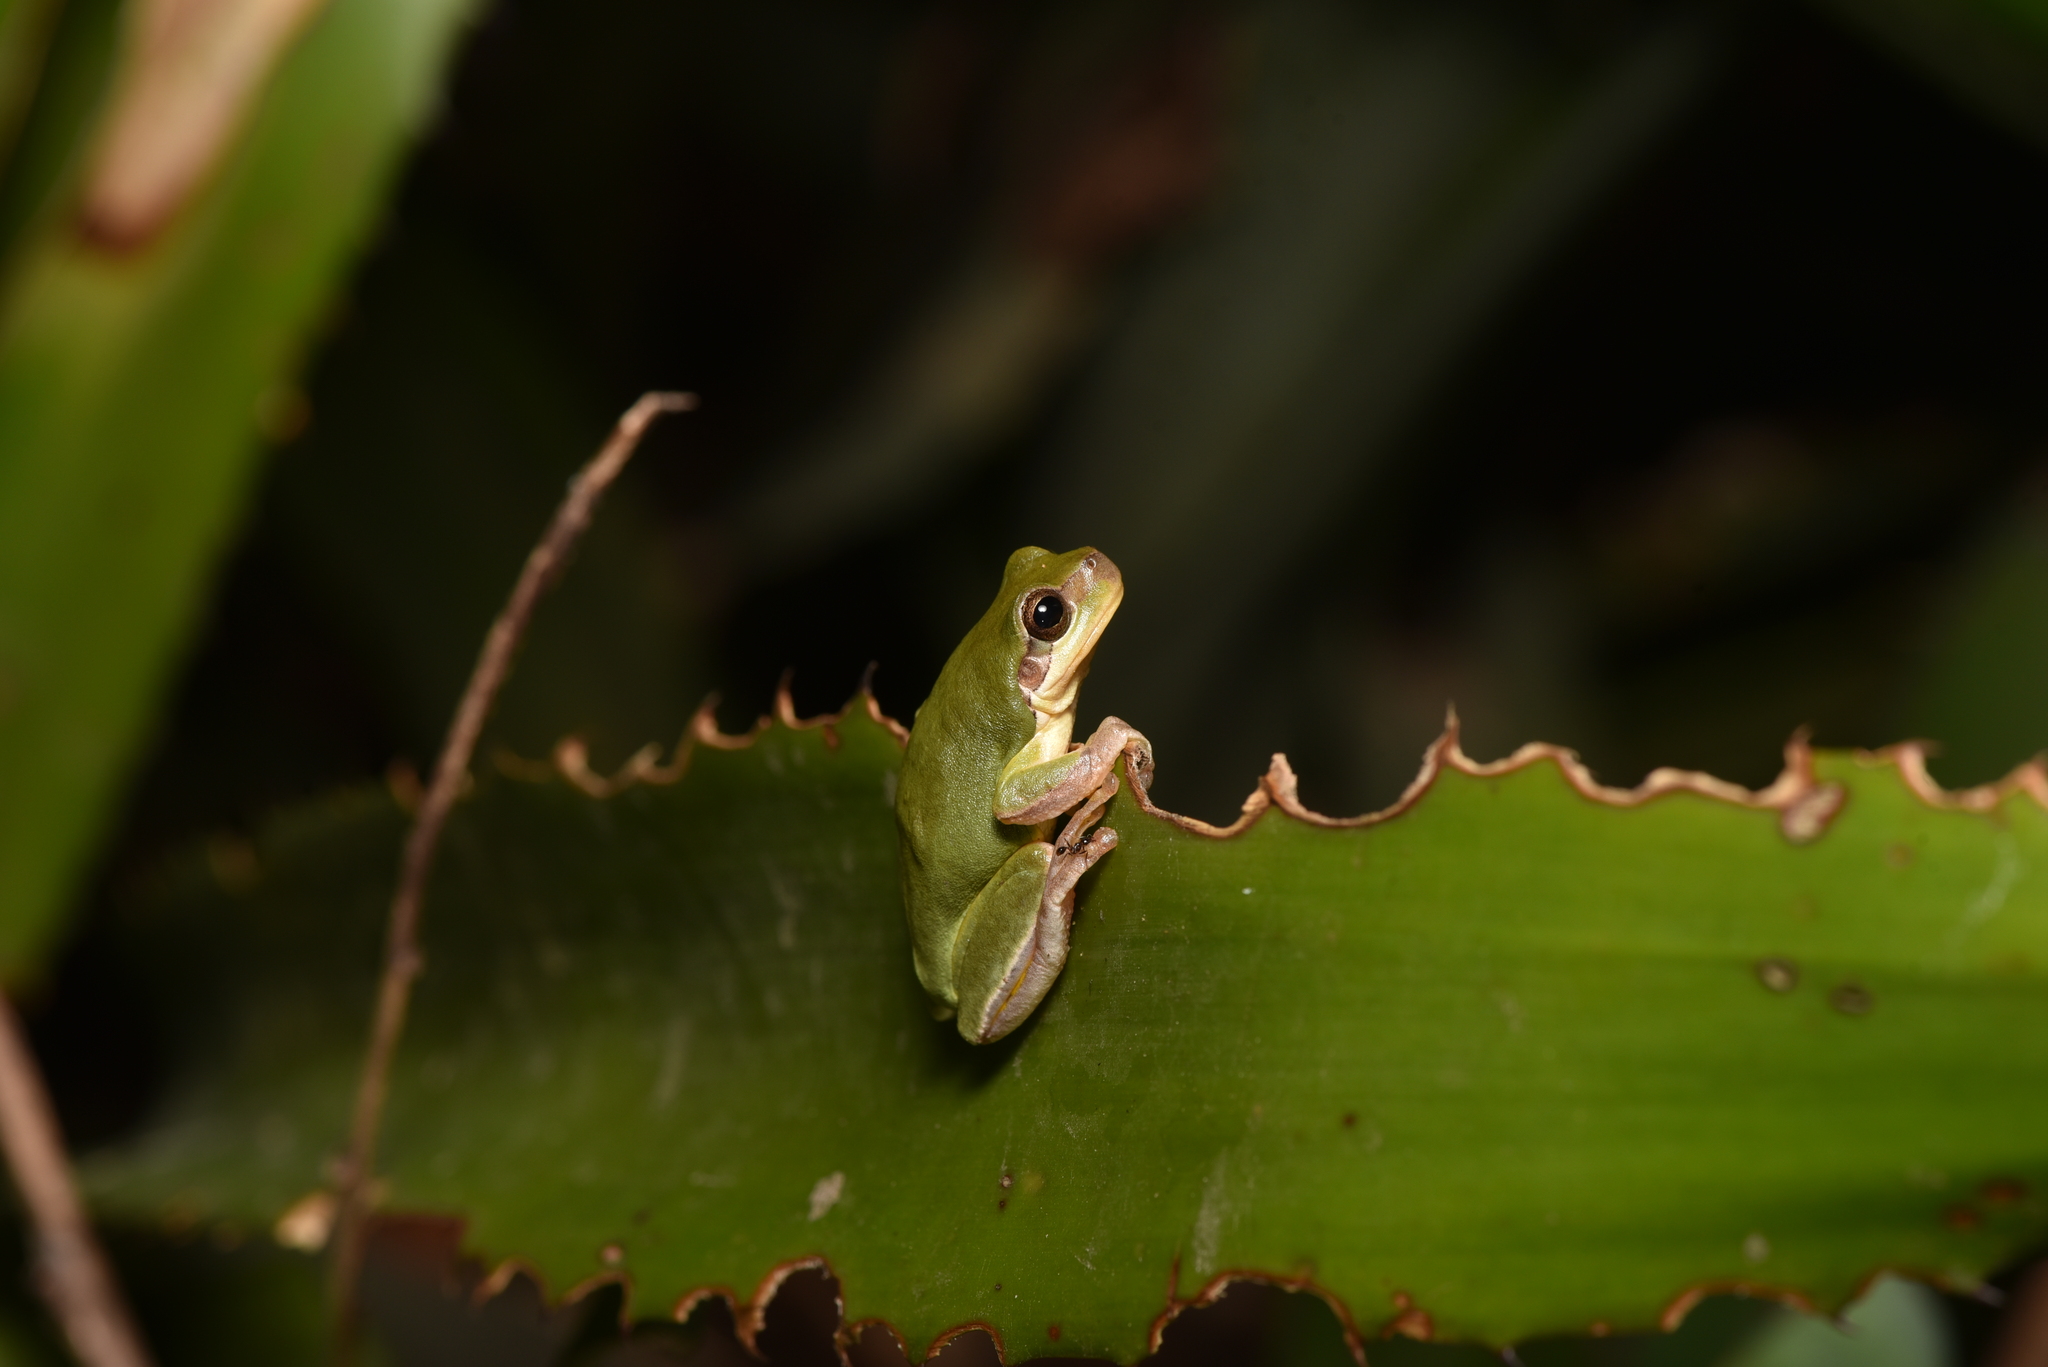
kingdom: Animalia
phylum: Chordata
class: Amphibia
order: Anura
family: Hylidae
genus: Hyla
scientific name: Hyla chinensis
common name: Common chinese treefrog
